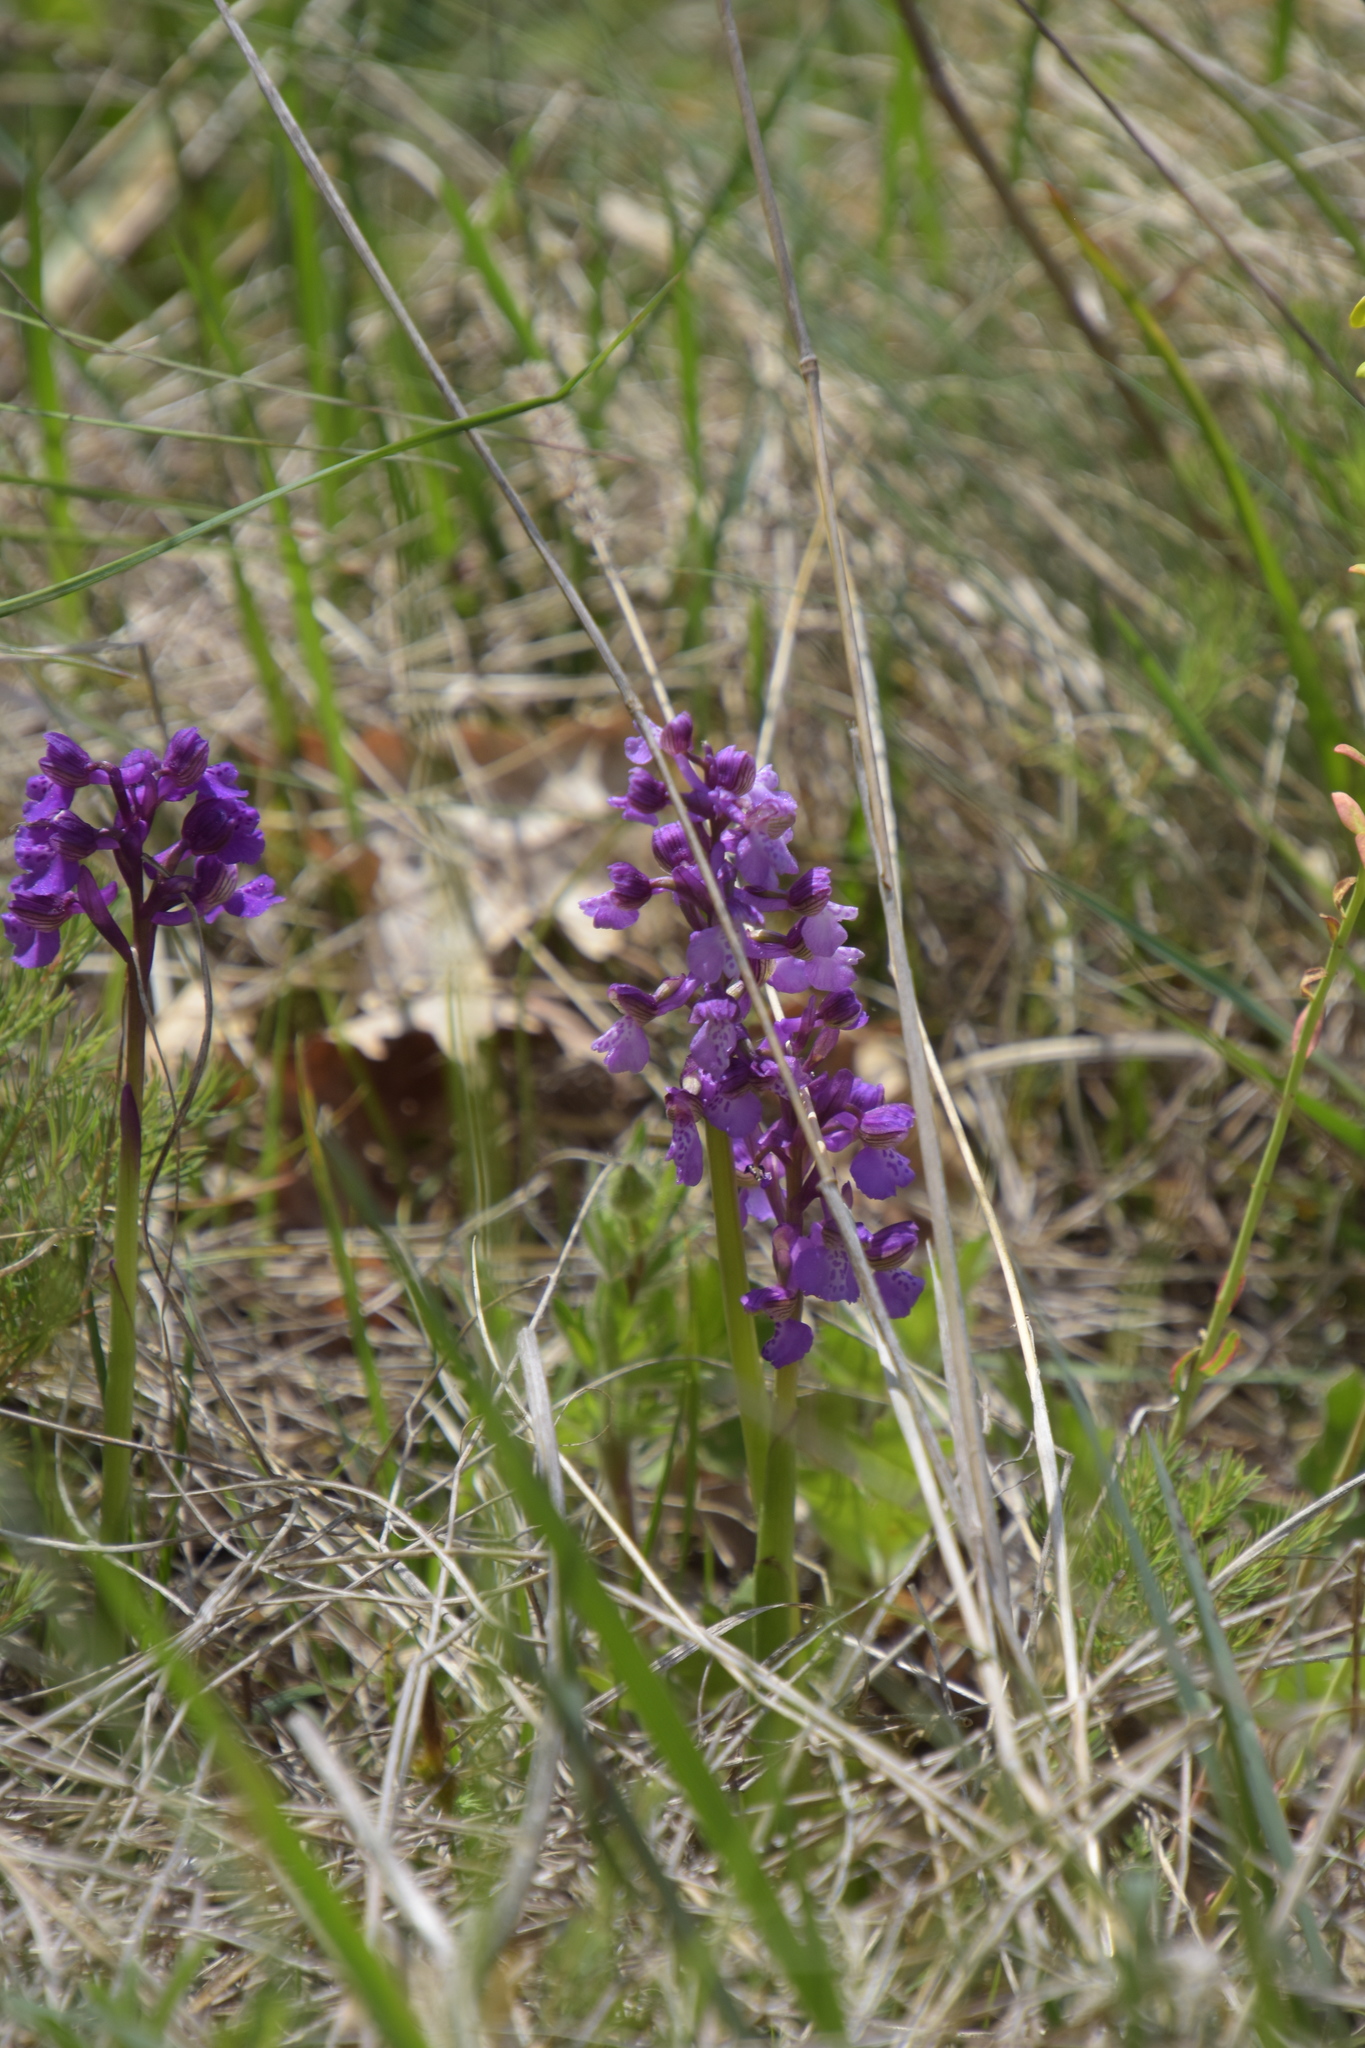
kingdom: Plantae
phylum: Tracheophyta
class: Liliopsida
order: Asparagales
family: Orchidaceae
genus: Anacamptis
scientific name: Anacamptis morio
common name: Green-winged orchid
